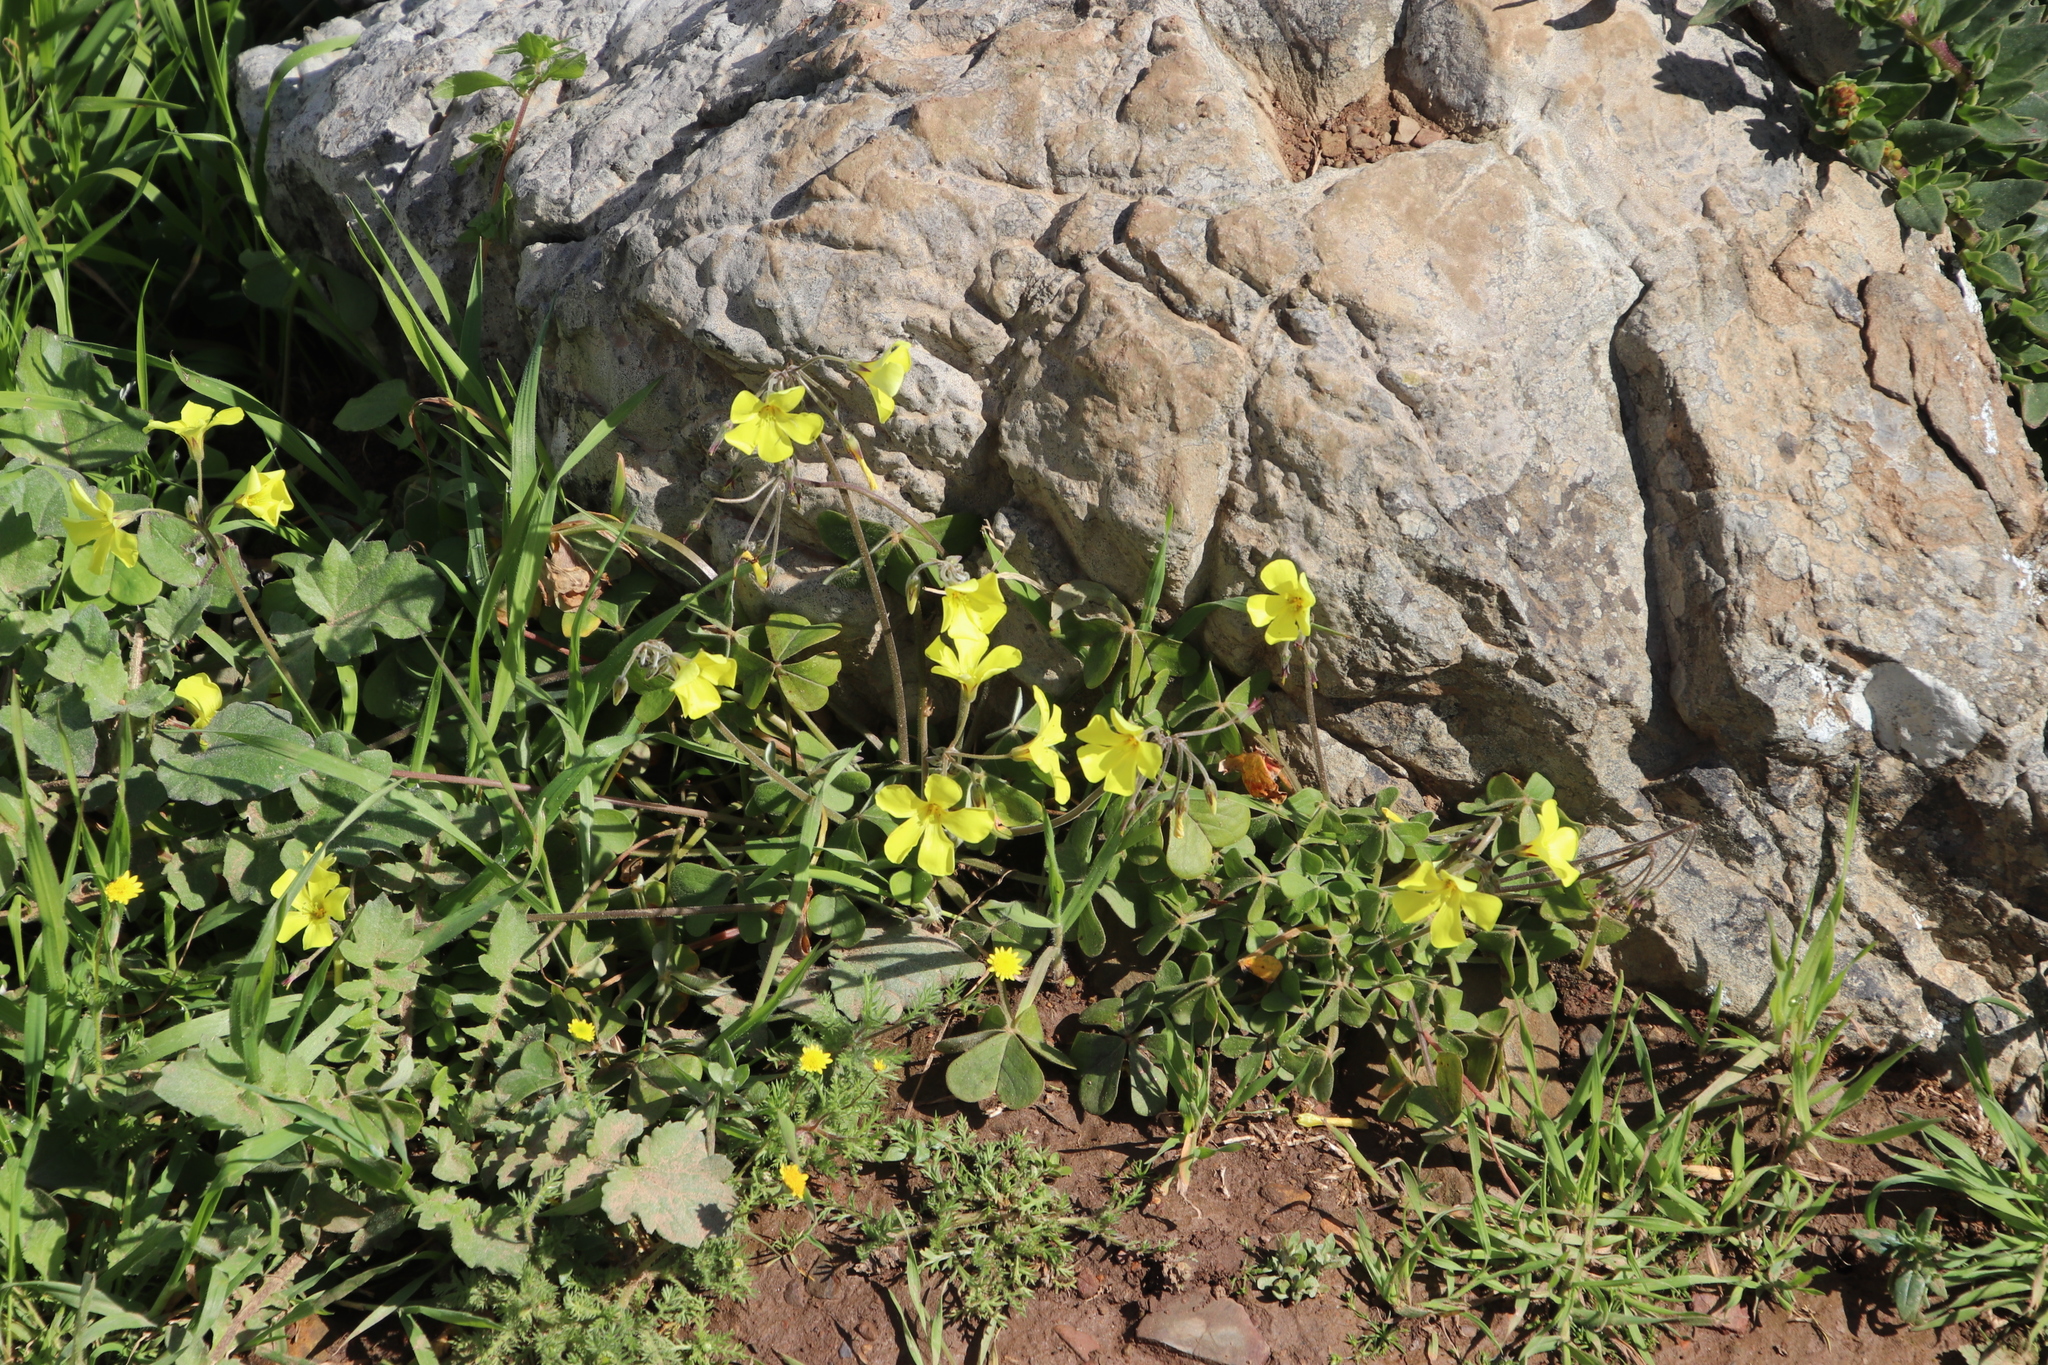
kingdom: Plantae
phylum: Tracheophyta
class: Magnoliopsida
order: Oxalidales
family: Oxalidaceae
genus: Oxalis
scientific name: Oxalis pes-caprae
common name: Bermuda-buttercup
